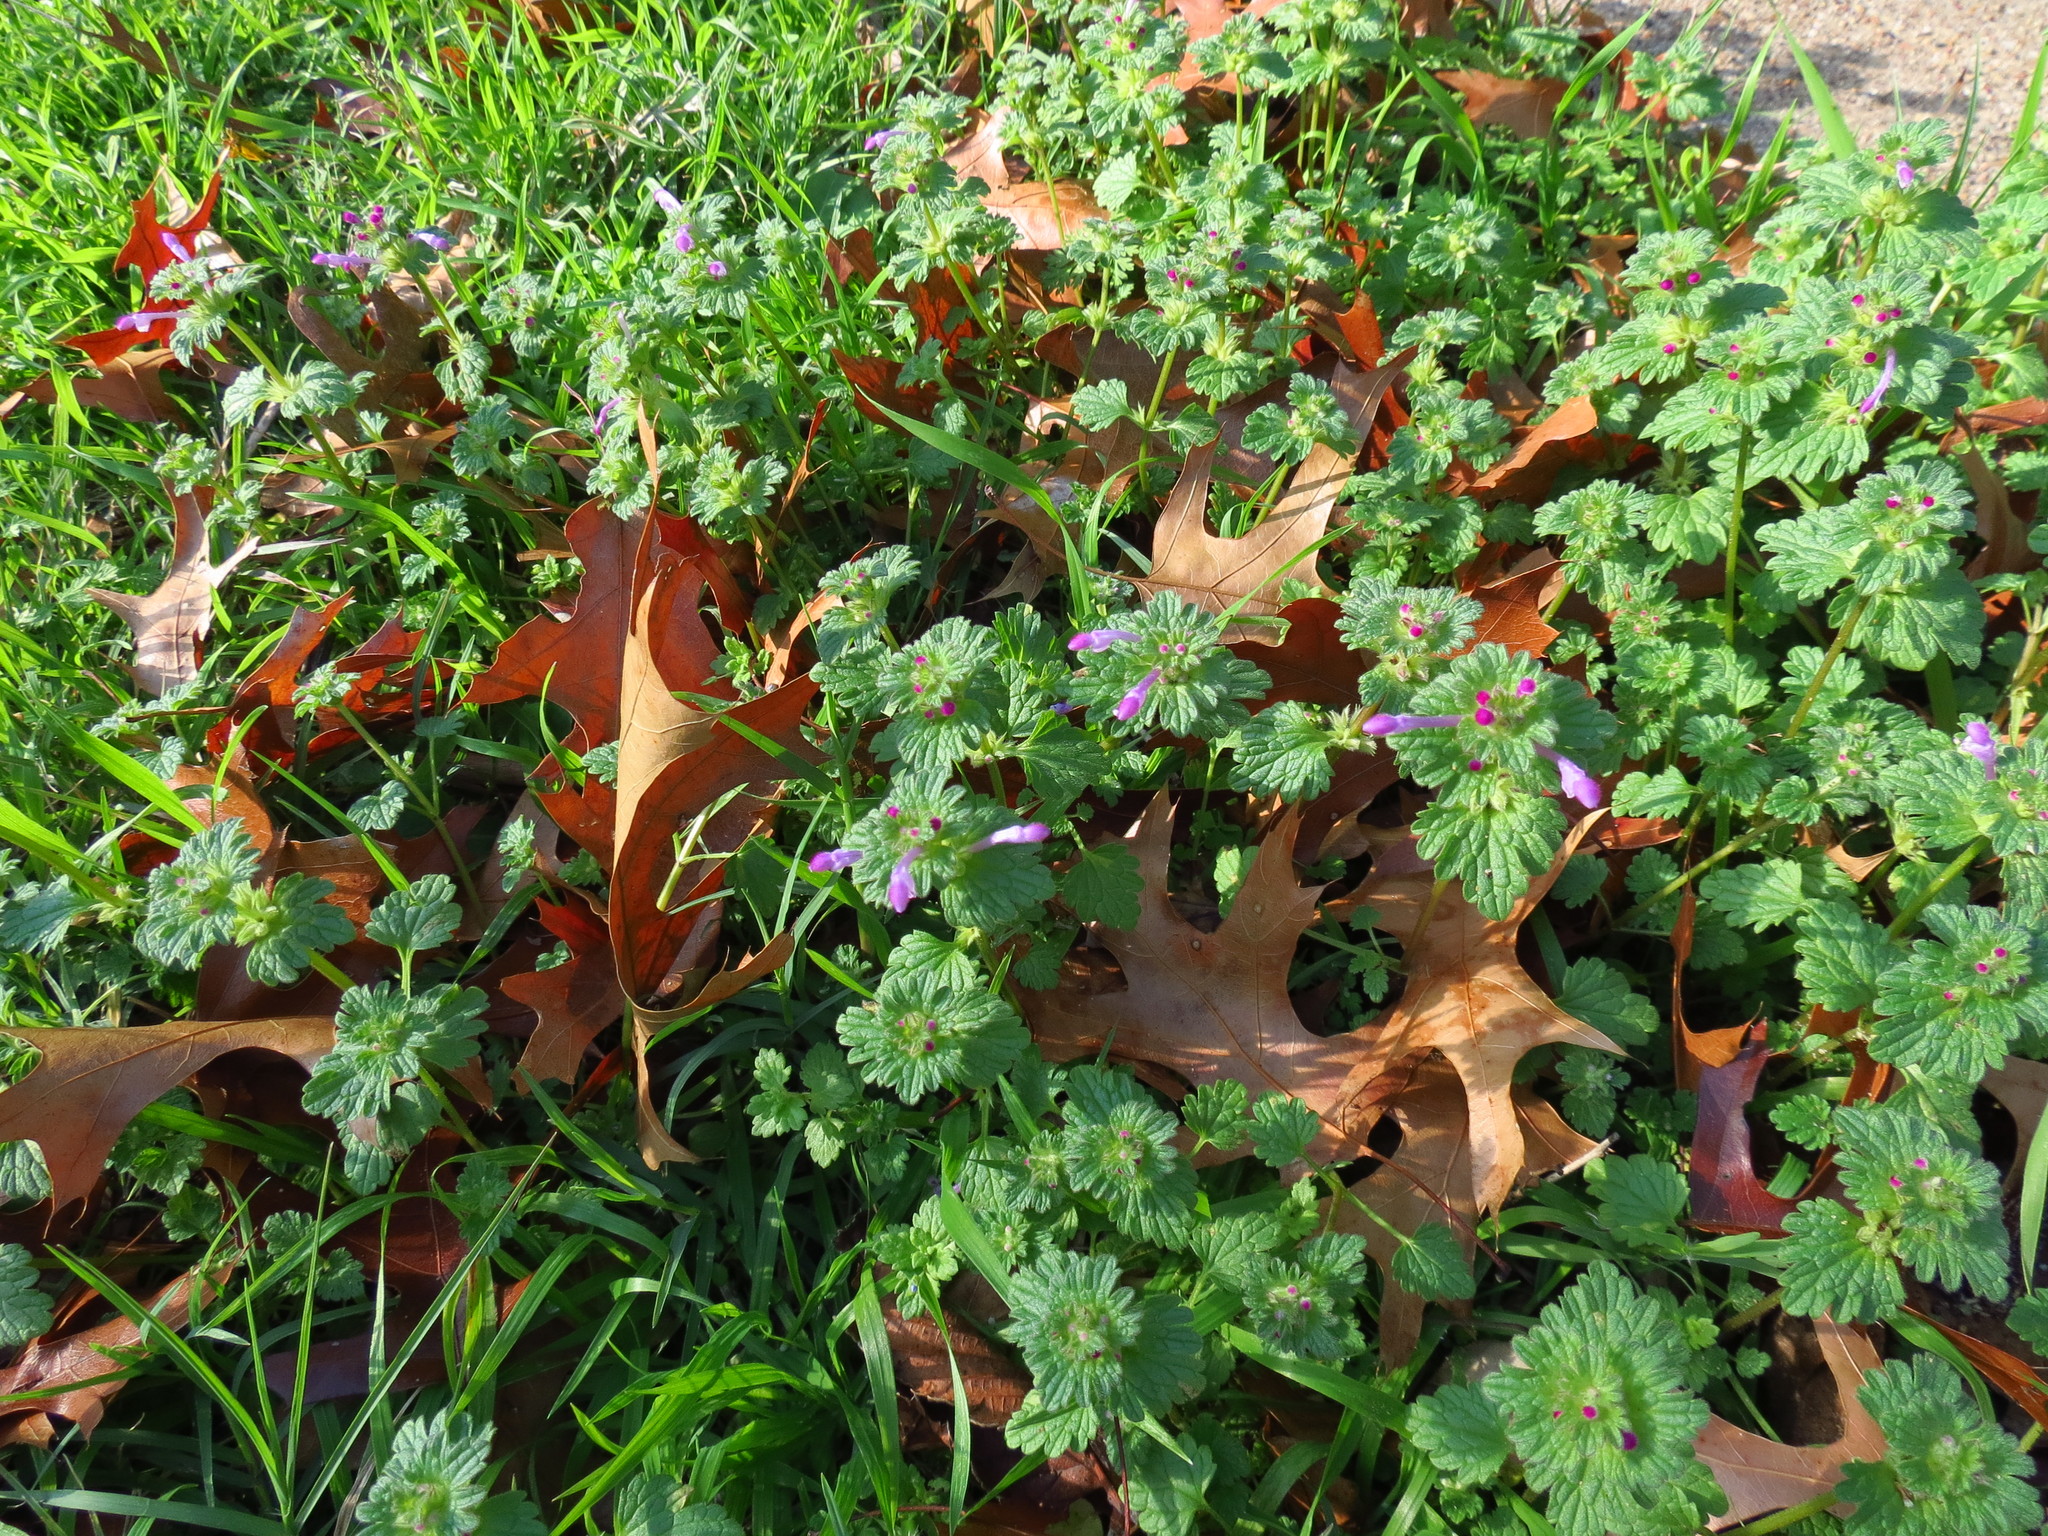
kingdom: Plantae
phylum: Tracheophyta
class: Magnoliopsida
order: Lamiales
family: Lamiaceae
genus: Lamium
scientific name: Lamium amplexicaule
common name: Henbit dead-nettle
